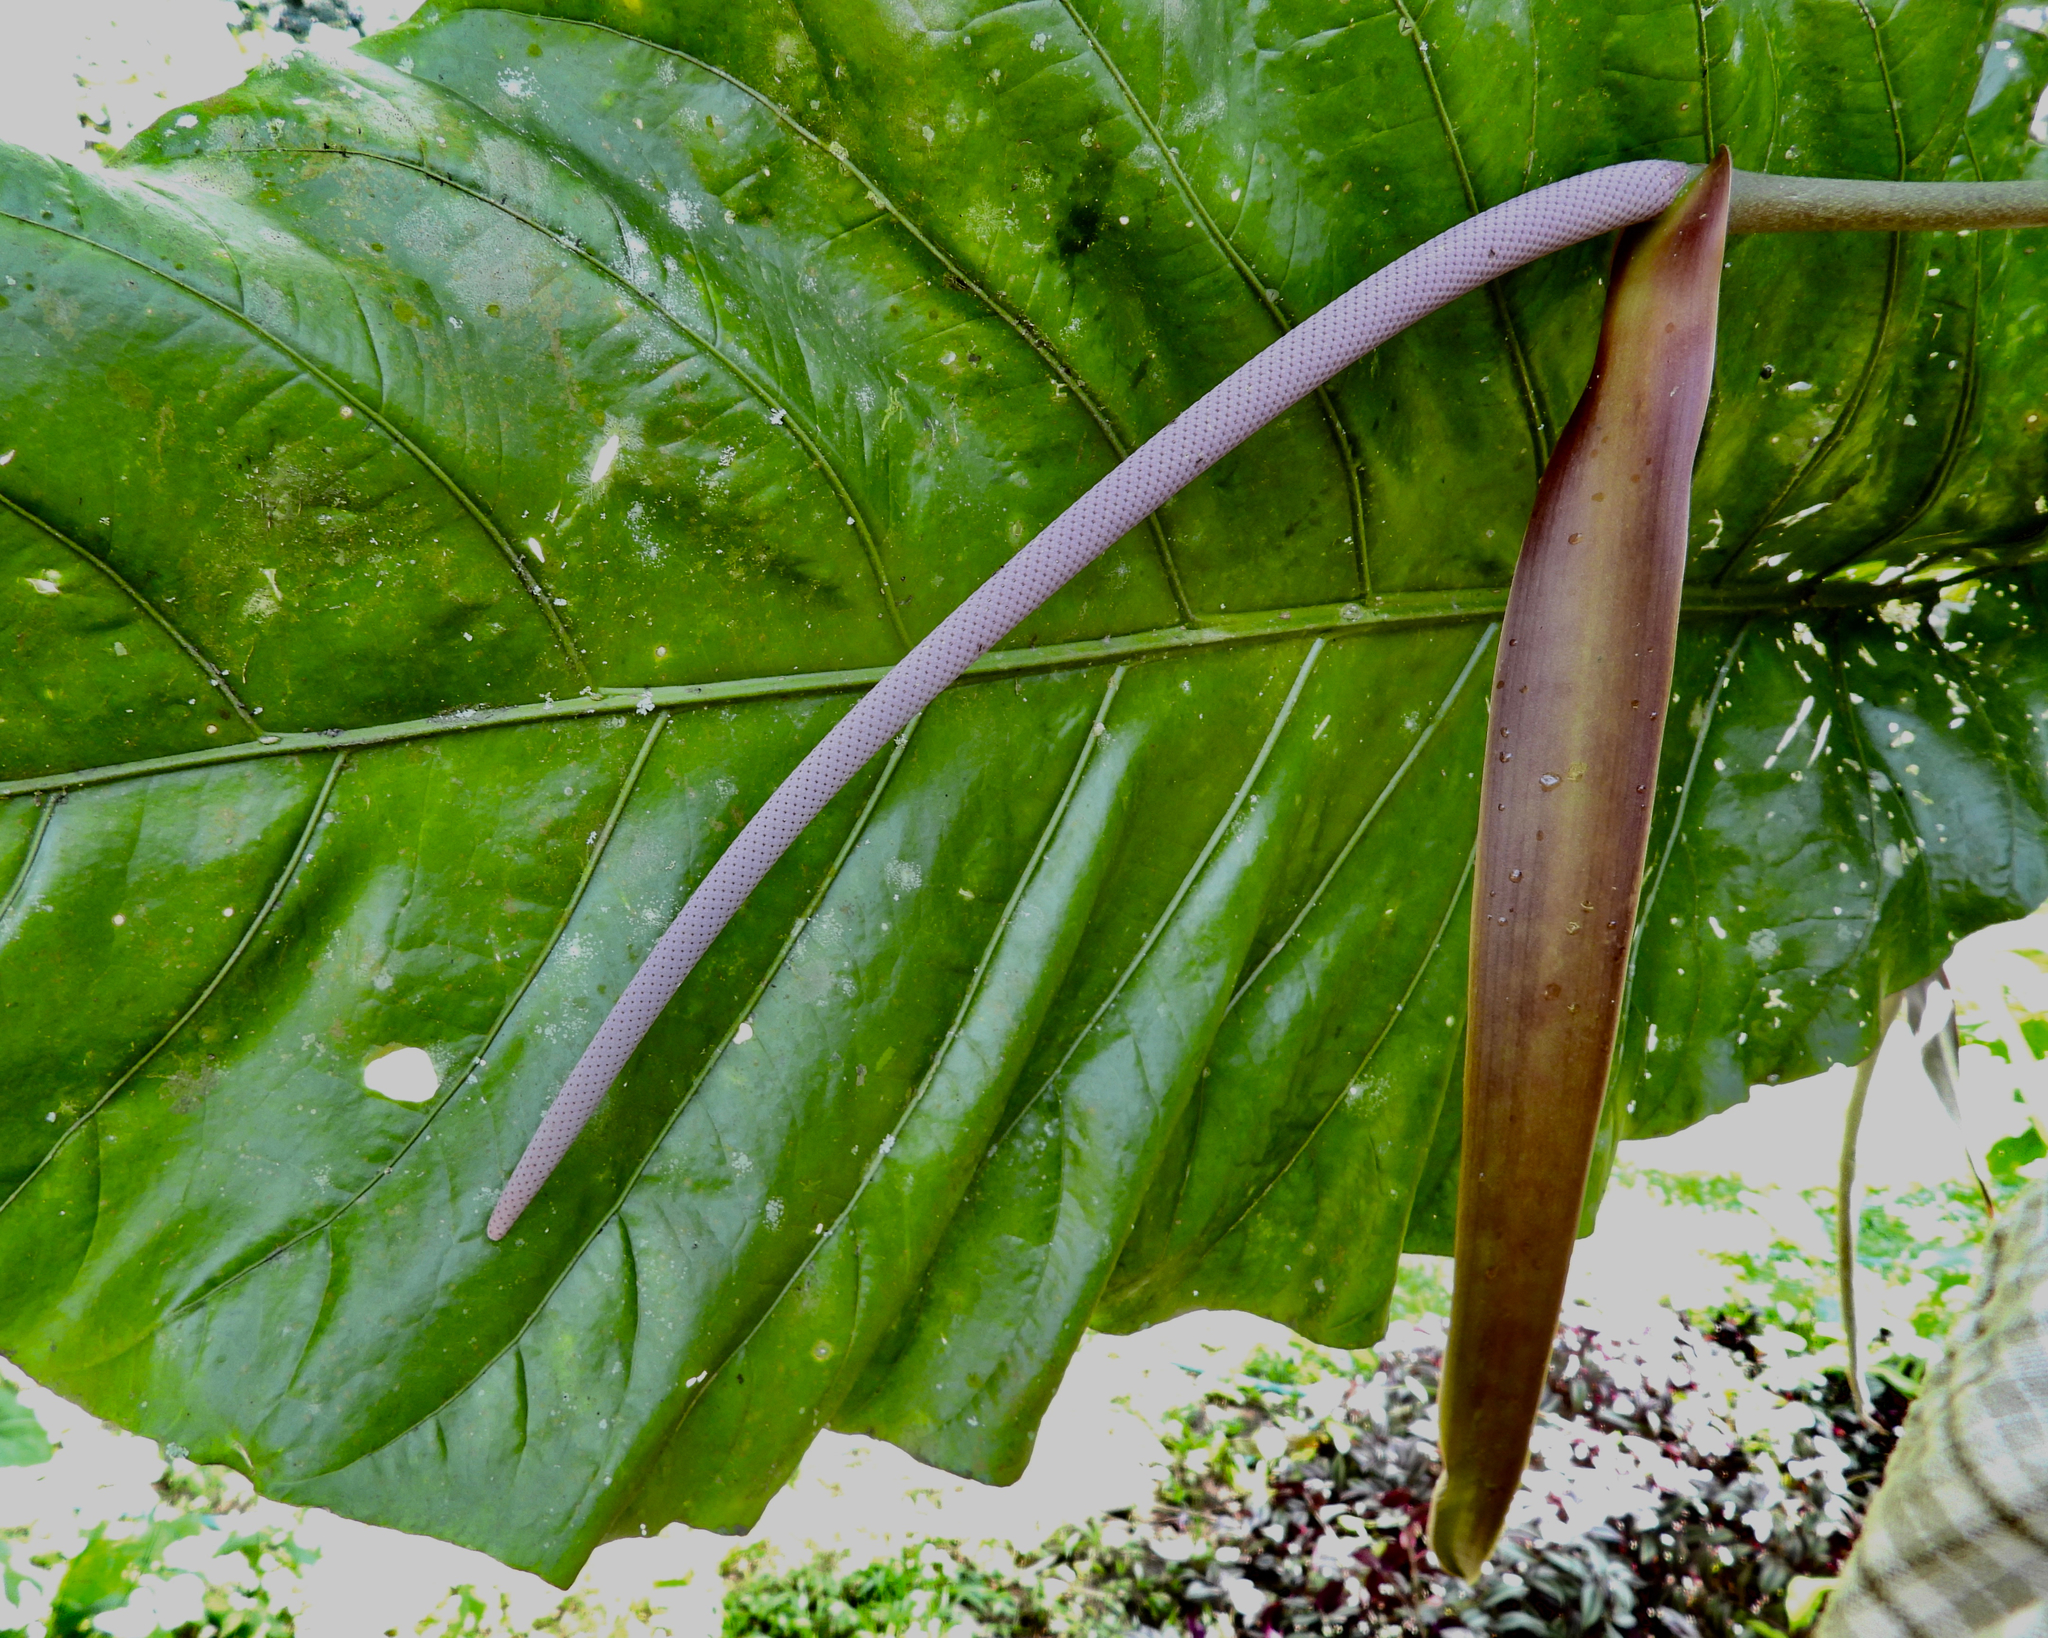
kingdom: Plantae
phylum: Tracheophyta
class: Liliopsida
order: Alismatales
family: Araceae
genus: Anthurium
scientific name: Anthurium salvinii
